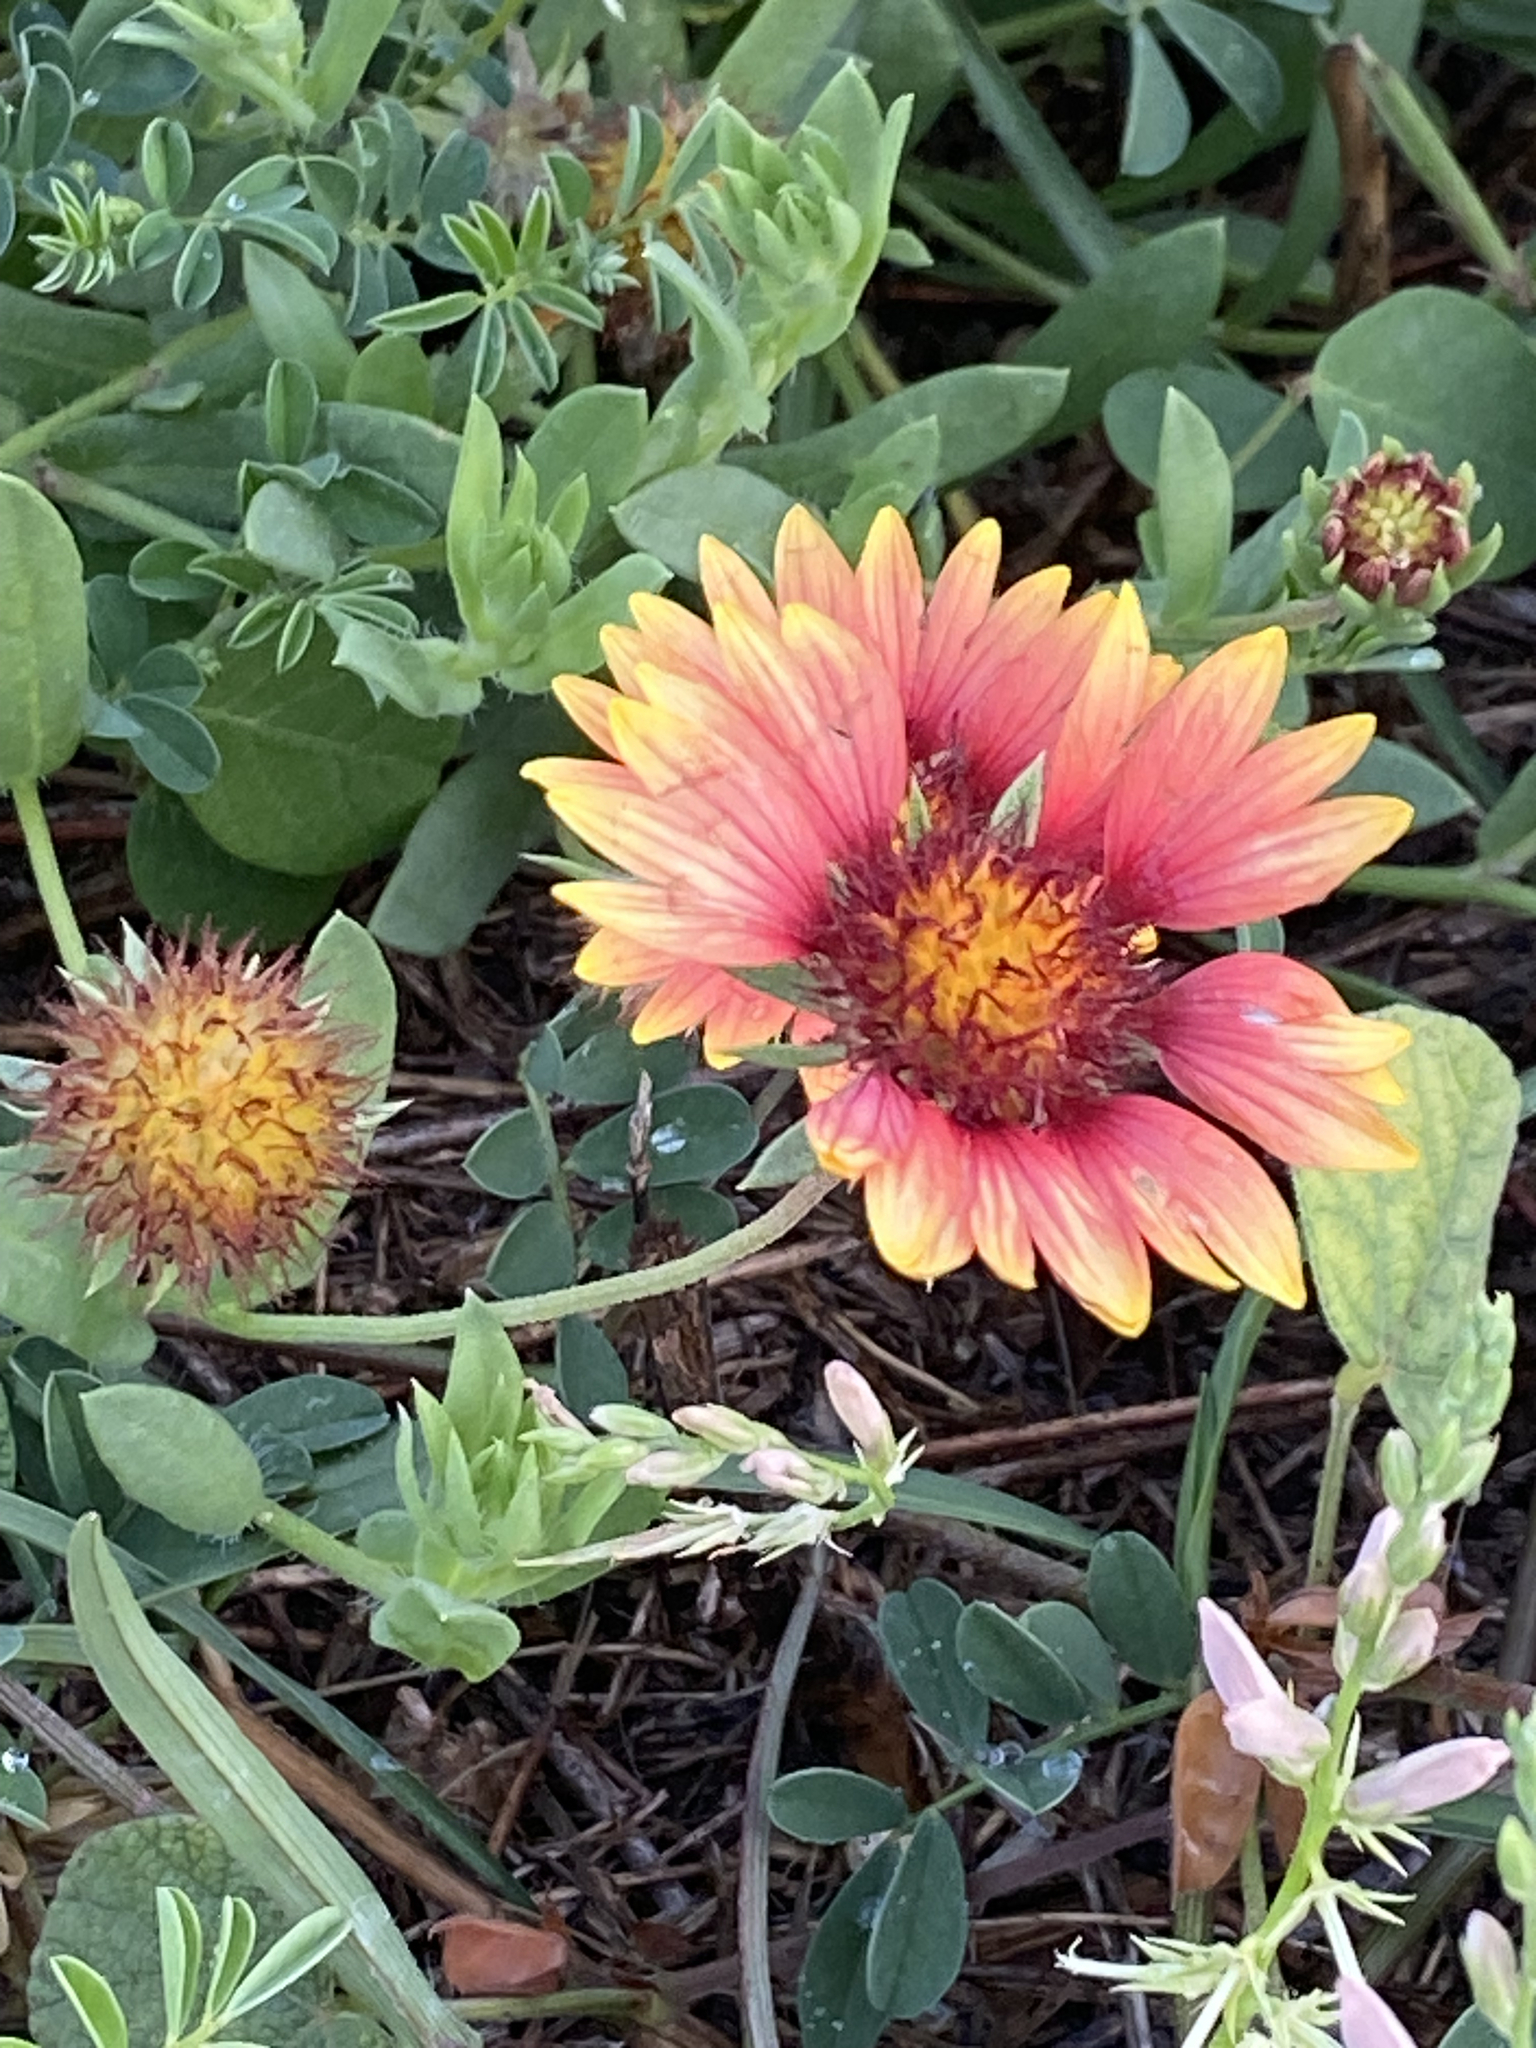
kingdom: Plantae
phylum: Tracheophyta
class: Magnoliopsida
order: Asterales
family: Asteraceae
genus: Gaillardia
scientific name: Gaillardia pulchella
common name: Firewheel
